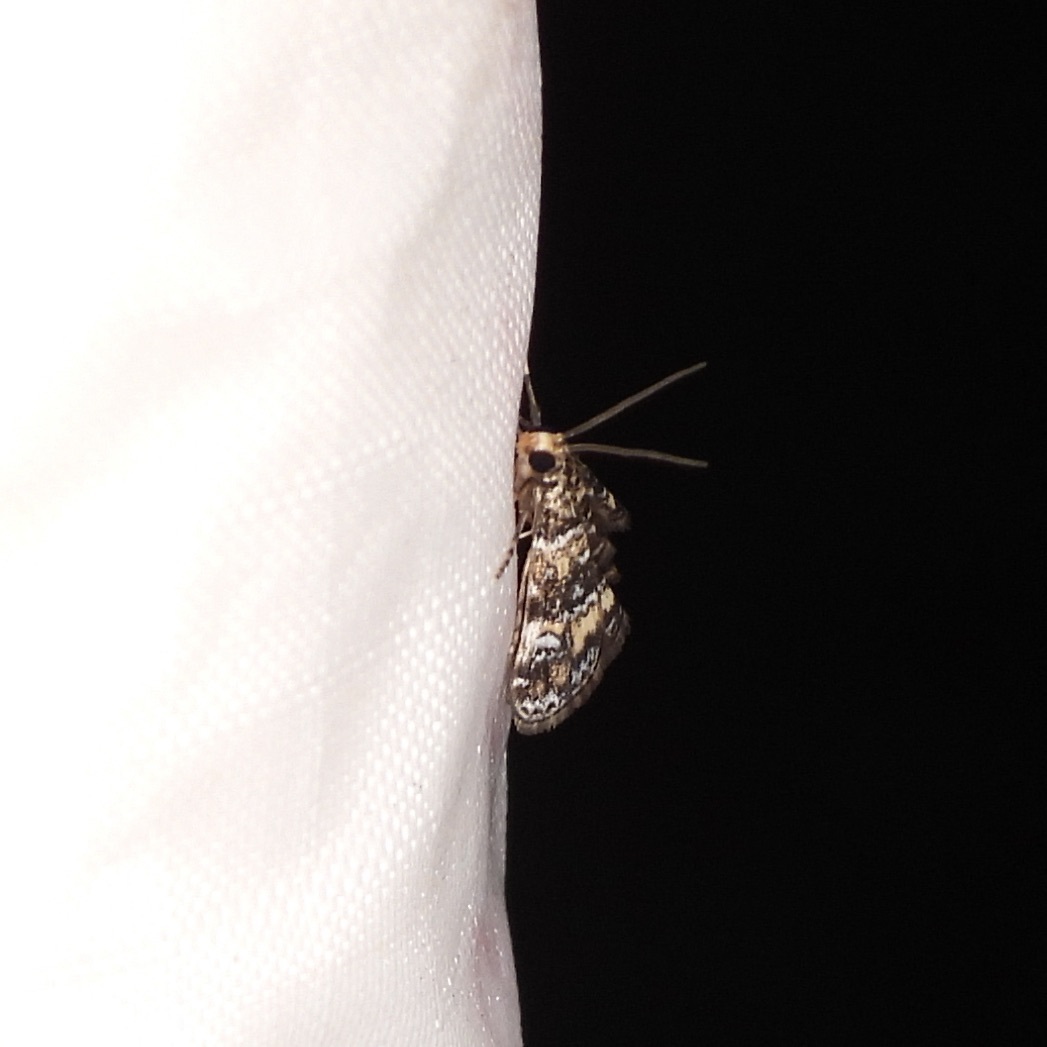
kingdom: Animalia
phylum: Arthropoda
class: Insecta
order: Lepidoptera
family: Crambidae
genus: Elophila
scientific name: Elophila obliteralis
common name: Waterlily leafcutter moth
